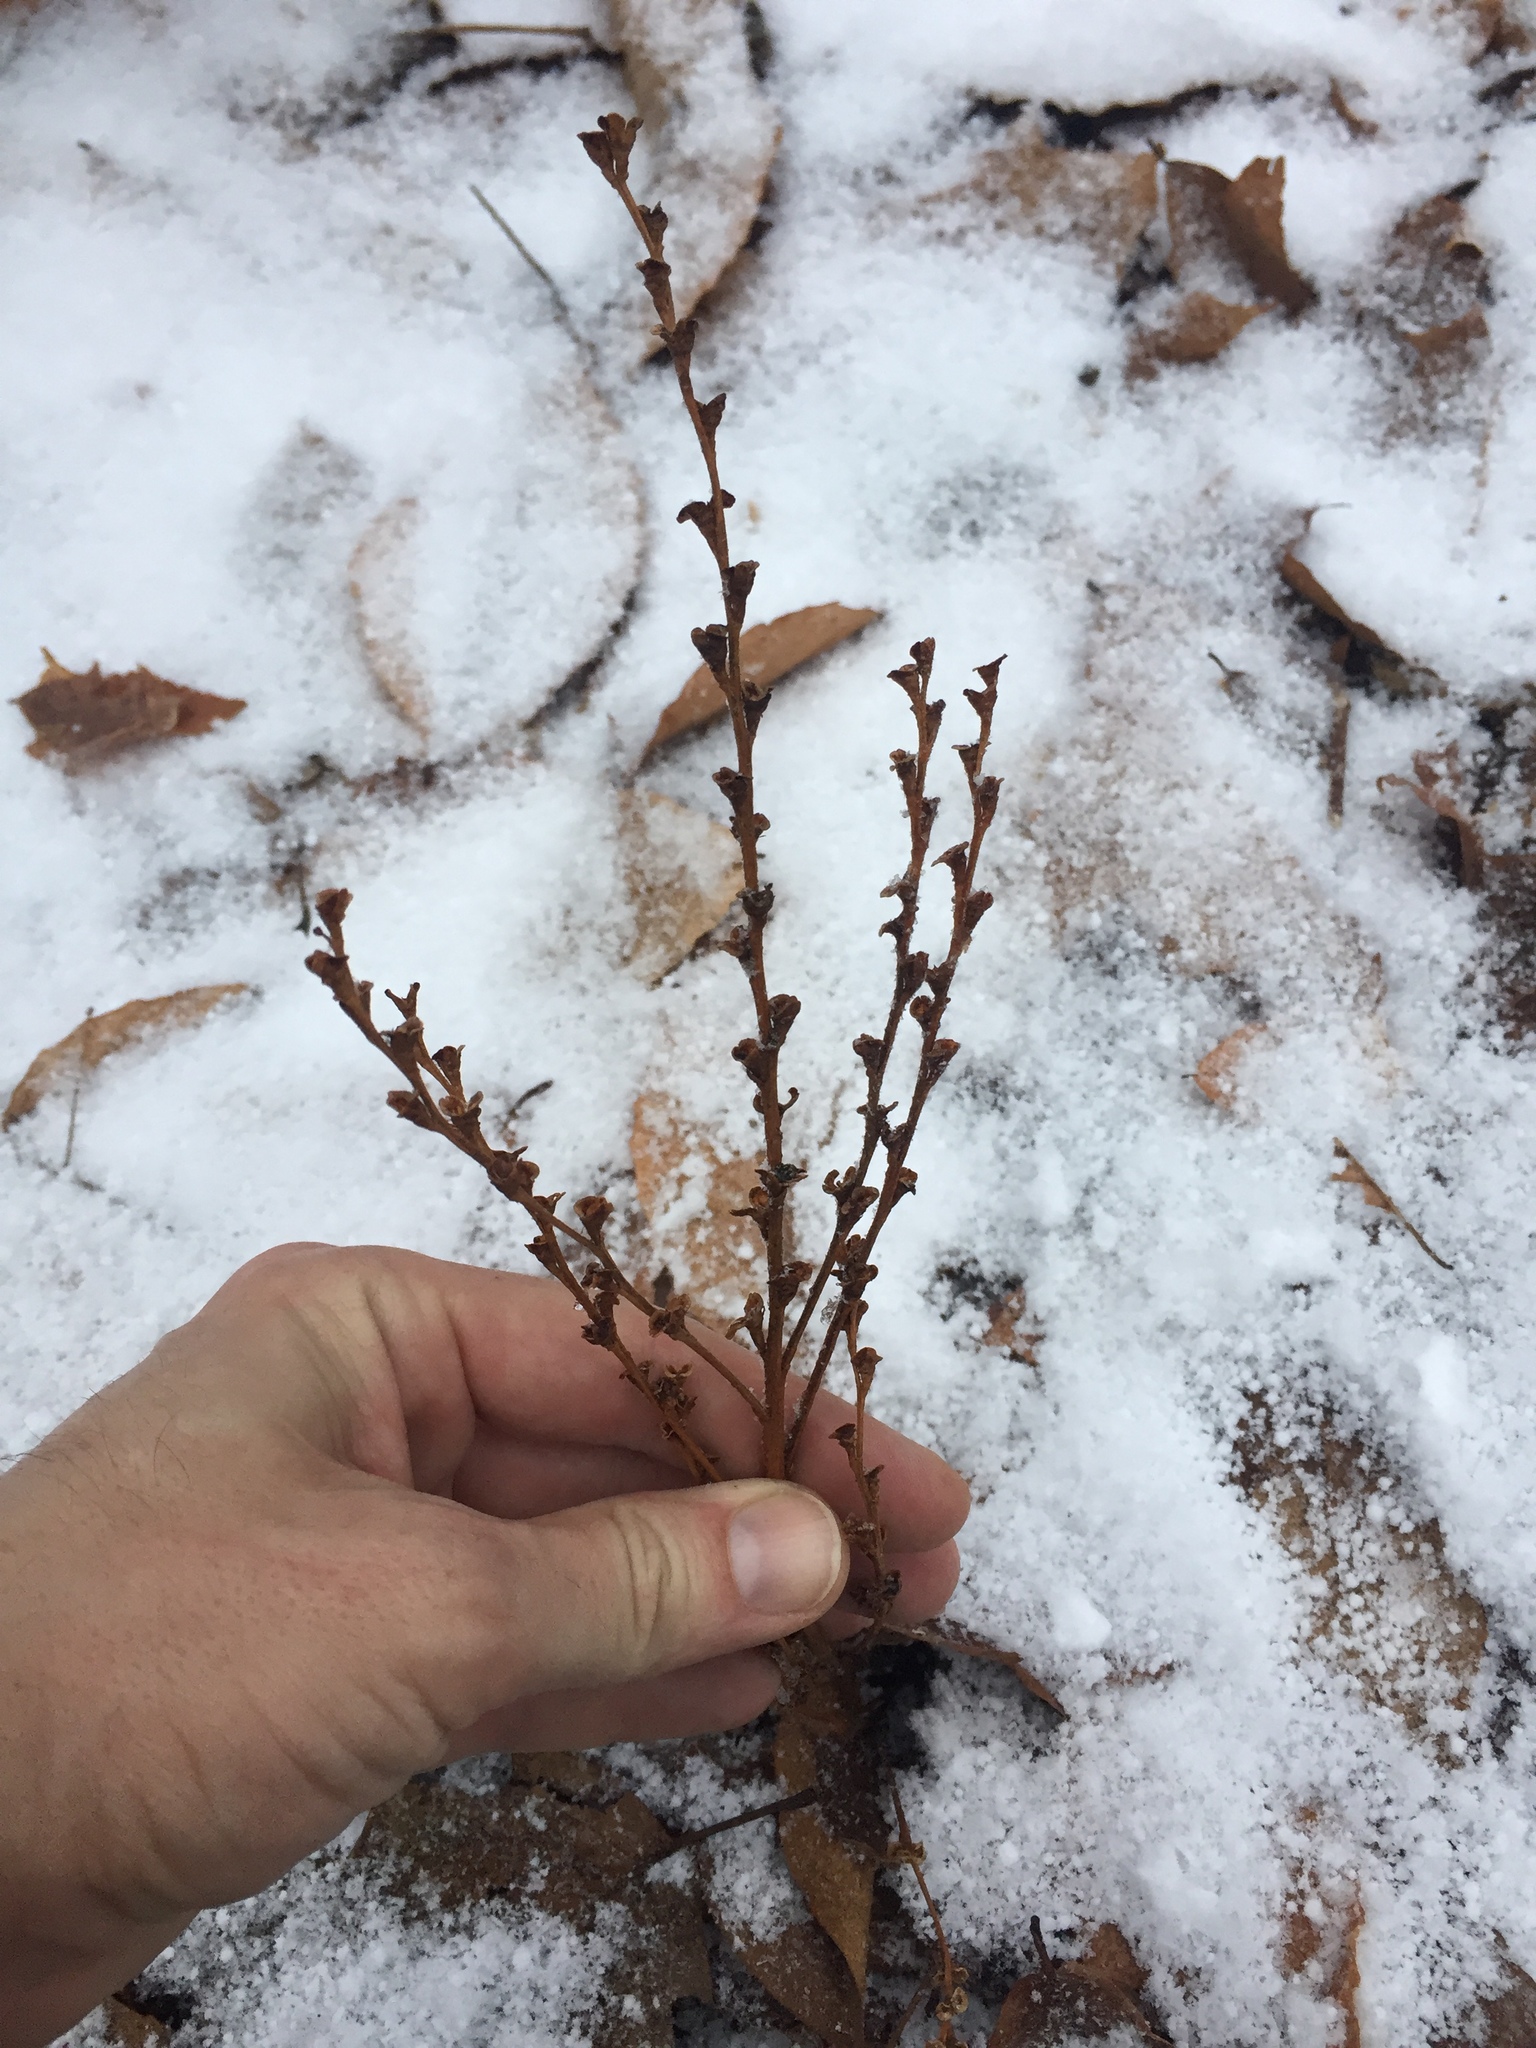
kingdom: Plantae
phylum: Tracheophyta
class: Magnoliopsida
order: Lamiales
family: Orobanchaceae
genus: Epifagus
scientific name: Epifagus virginiana
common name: Beechdrops
